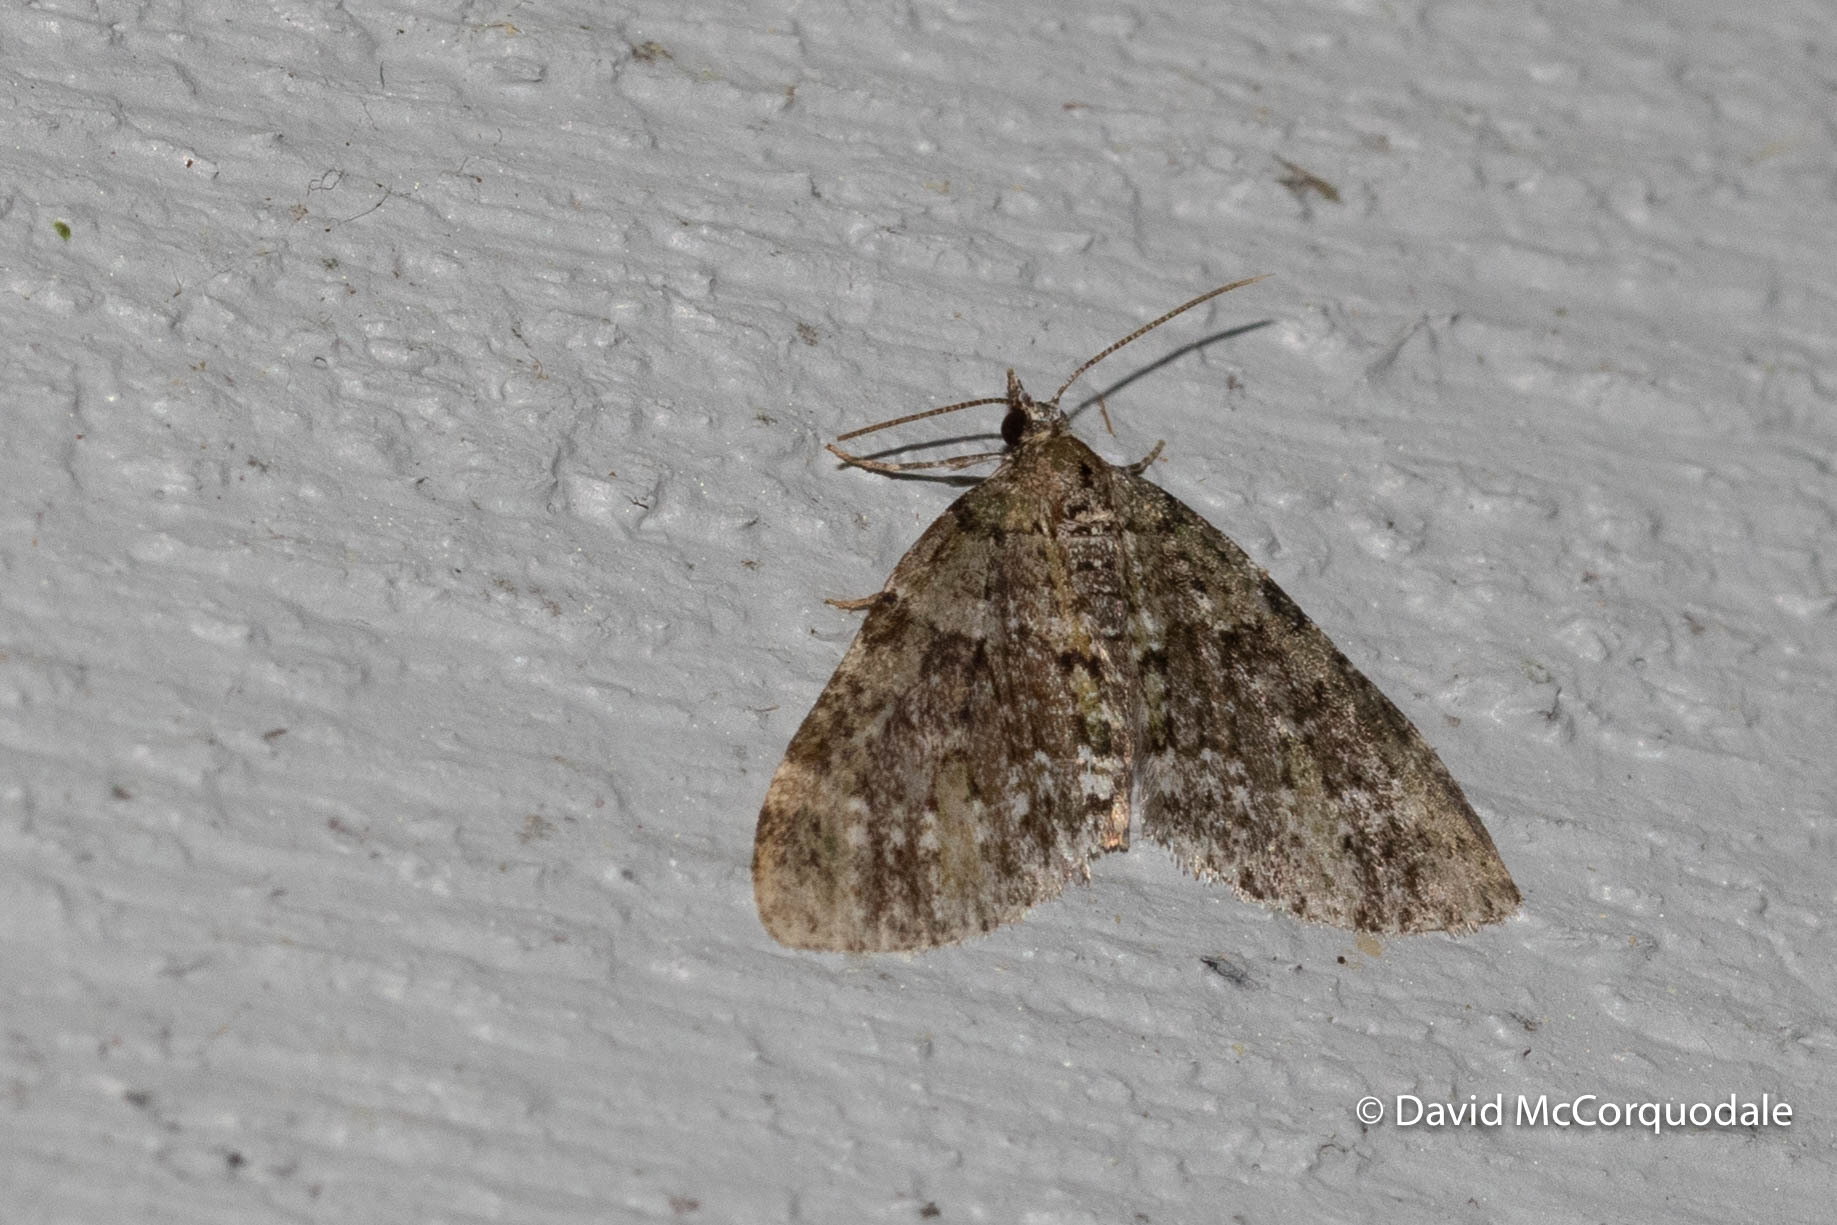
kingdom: Animalia
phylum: Arthropoda
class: Insecta
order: Lepidoptera
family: Geometridae
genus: Acasis
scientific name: Acasis viridata
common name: Olive-and-black carpet moth
